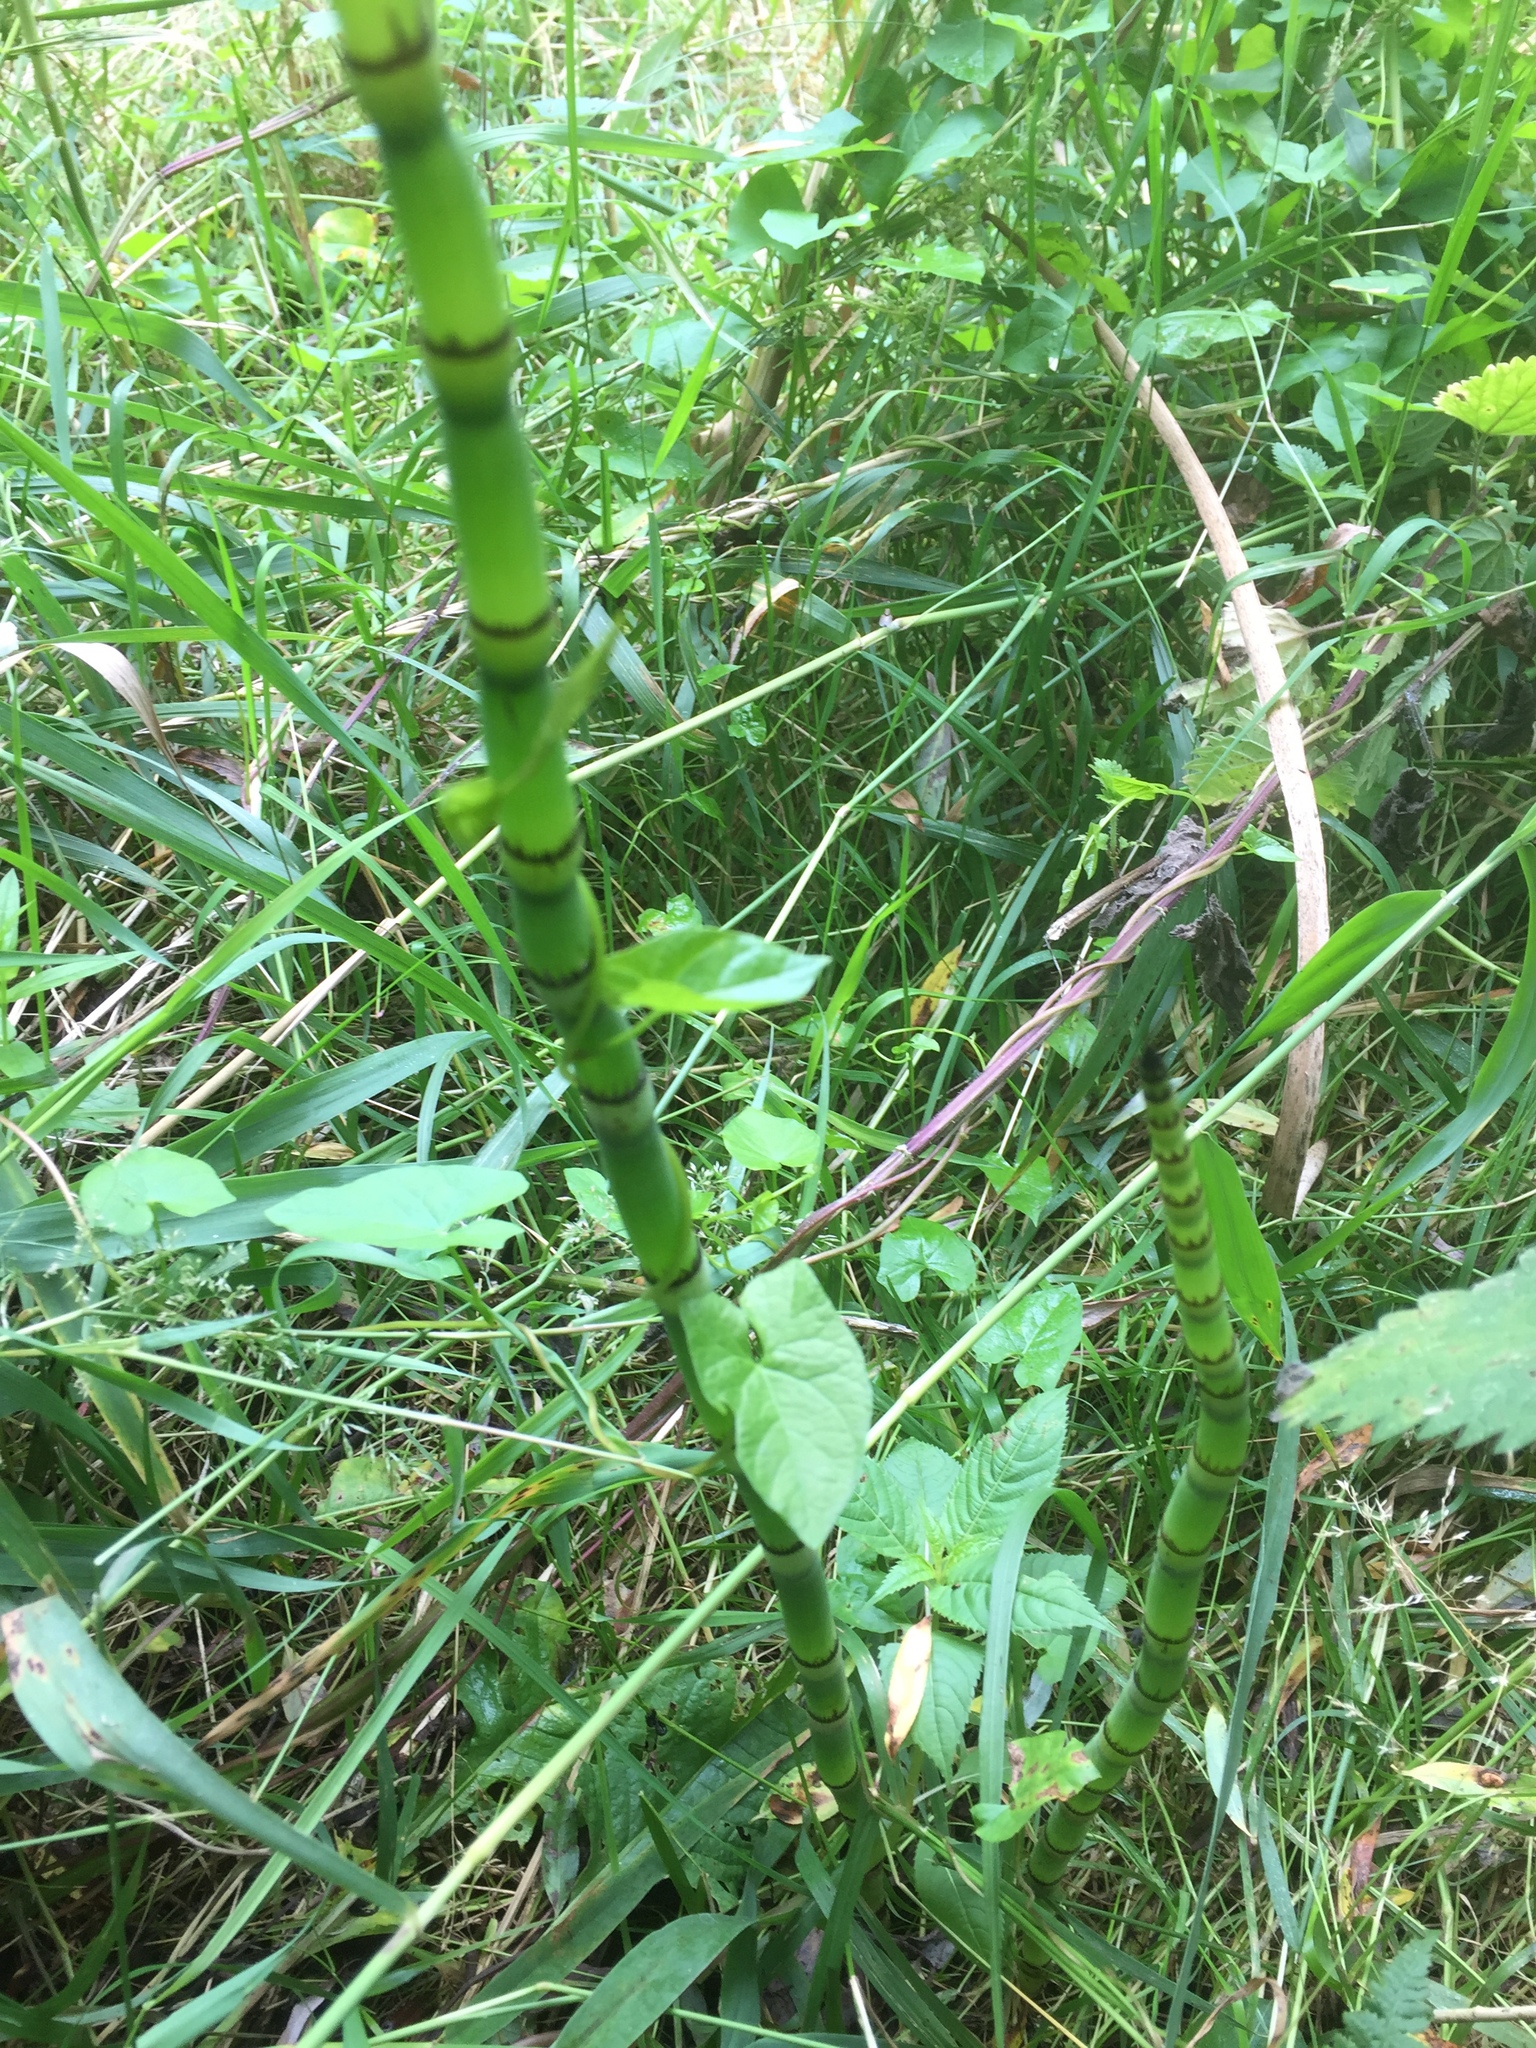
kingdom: Plantae
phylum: Tracheophyta
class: Polypodiopsida
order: Equisetales
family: Equisetaceae
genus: Equisetum
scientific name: Equisetum hyemale
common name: Rough horsetail
